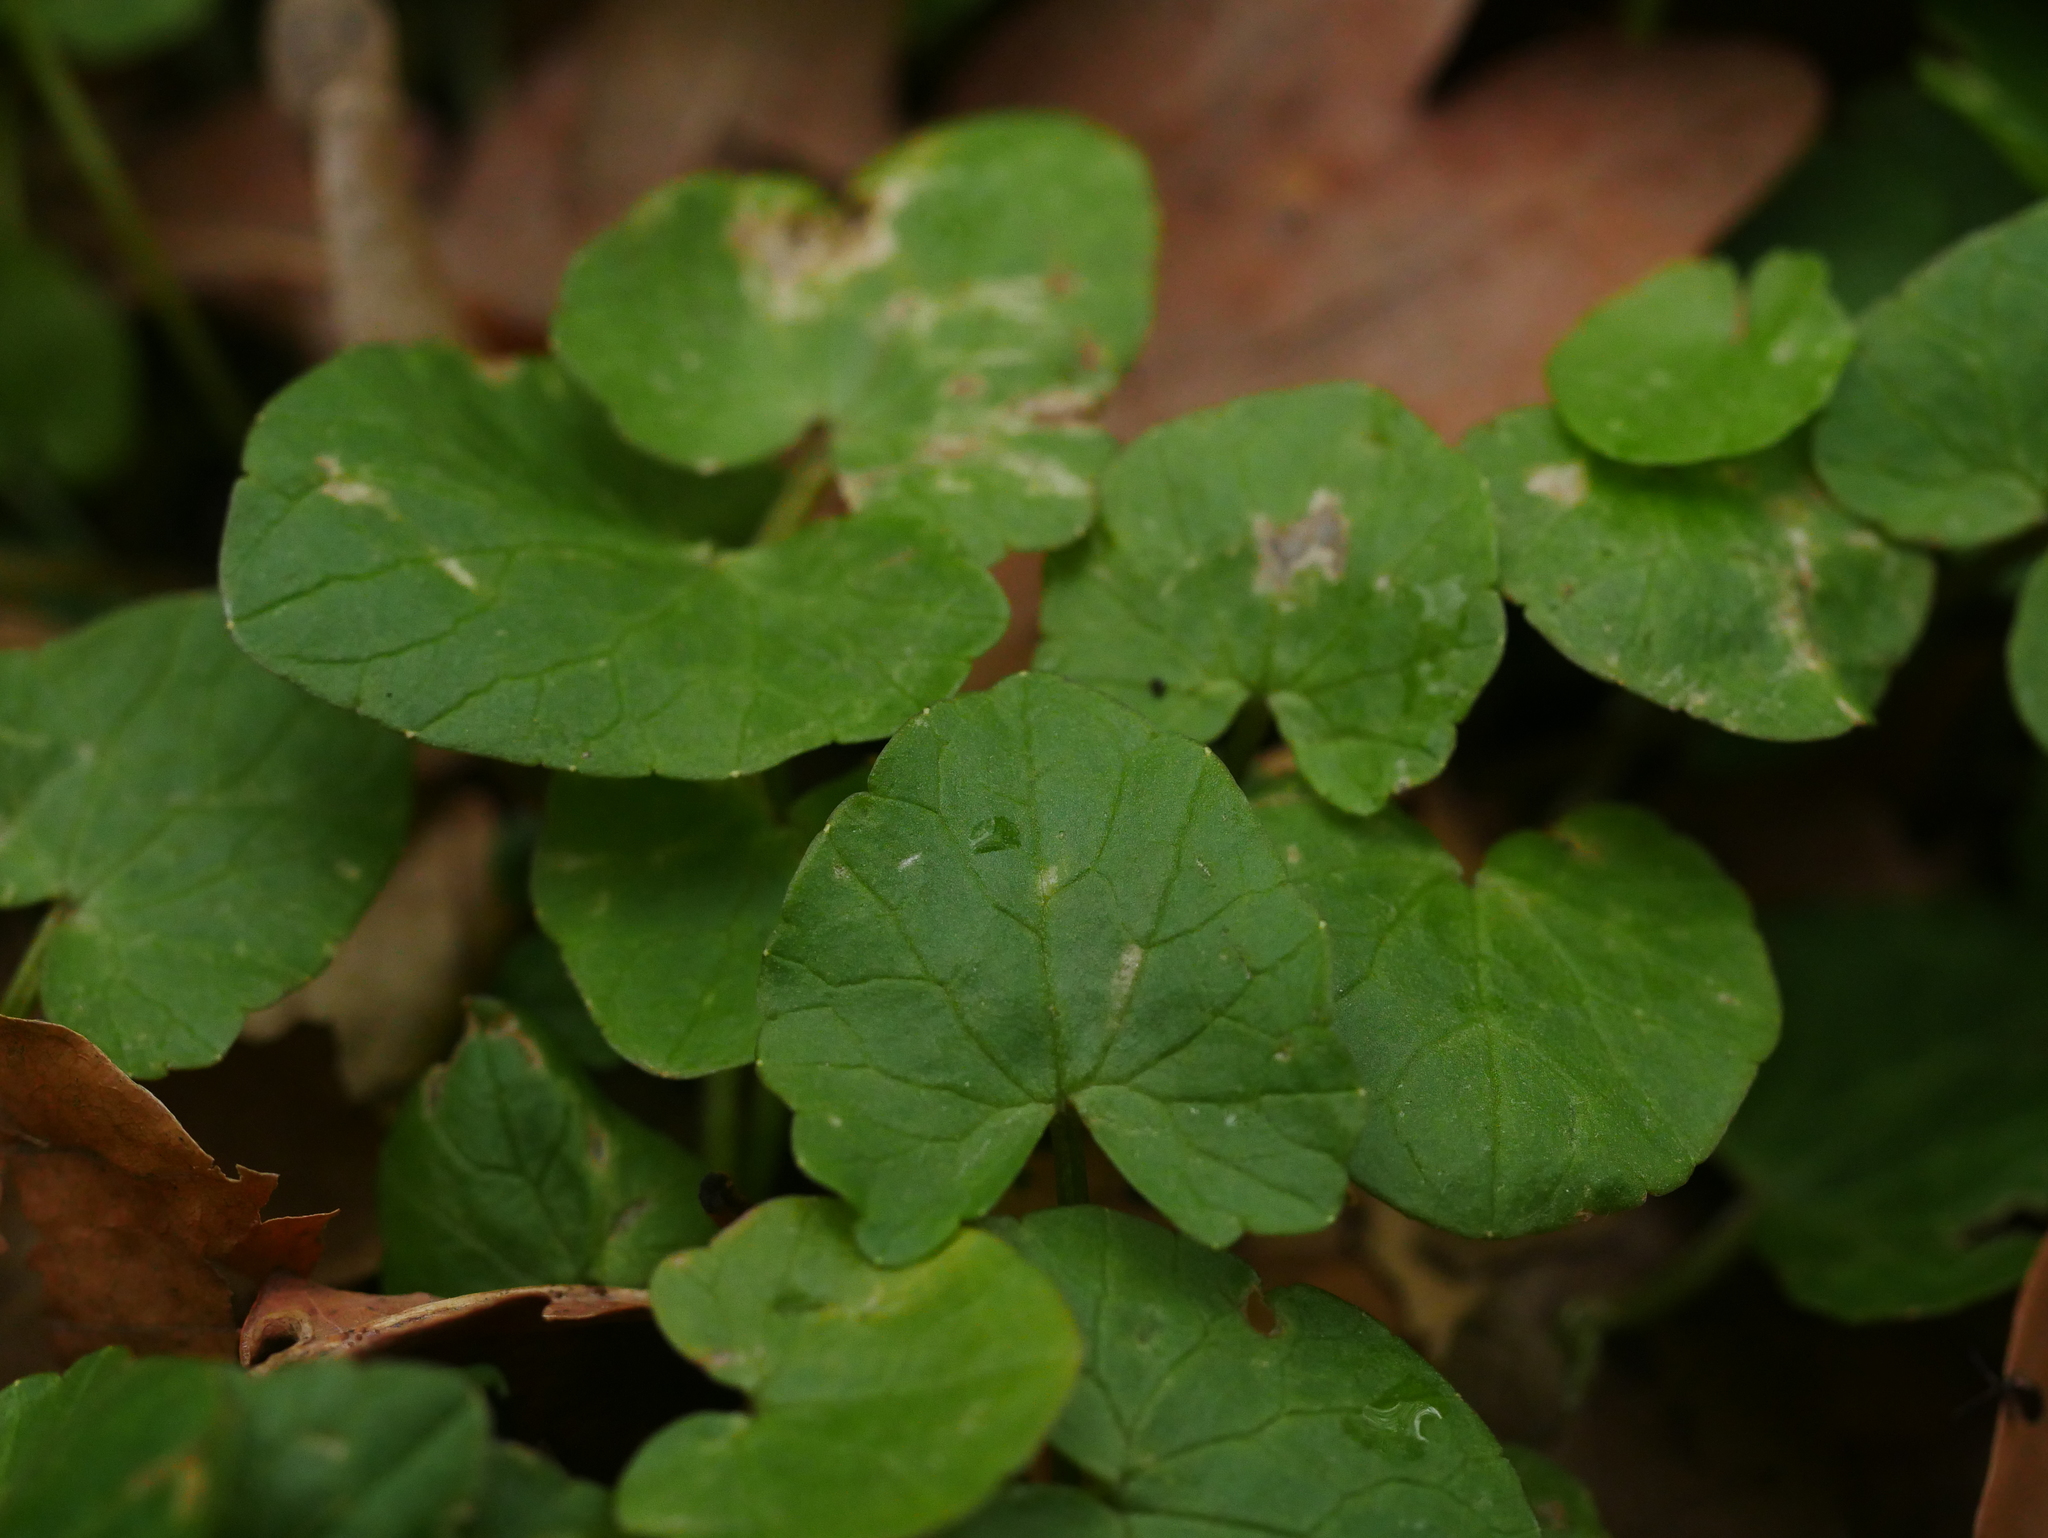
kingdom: Plantae
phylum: Tracheophyta
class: Magnoliopsida
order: Ranunculales
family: Ranunculaceae
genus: Ficaria
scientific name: Ficaria verna
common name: Lesser celandine
